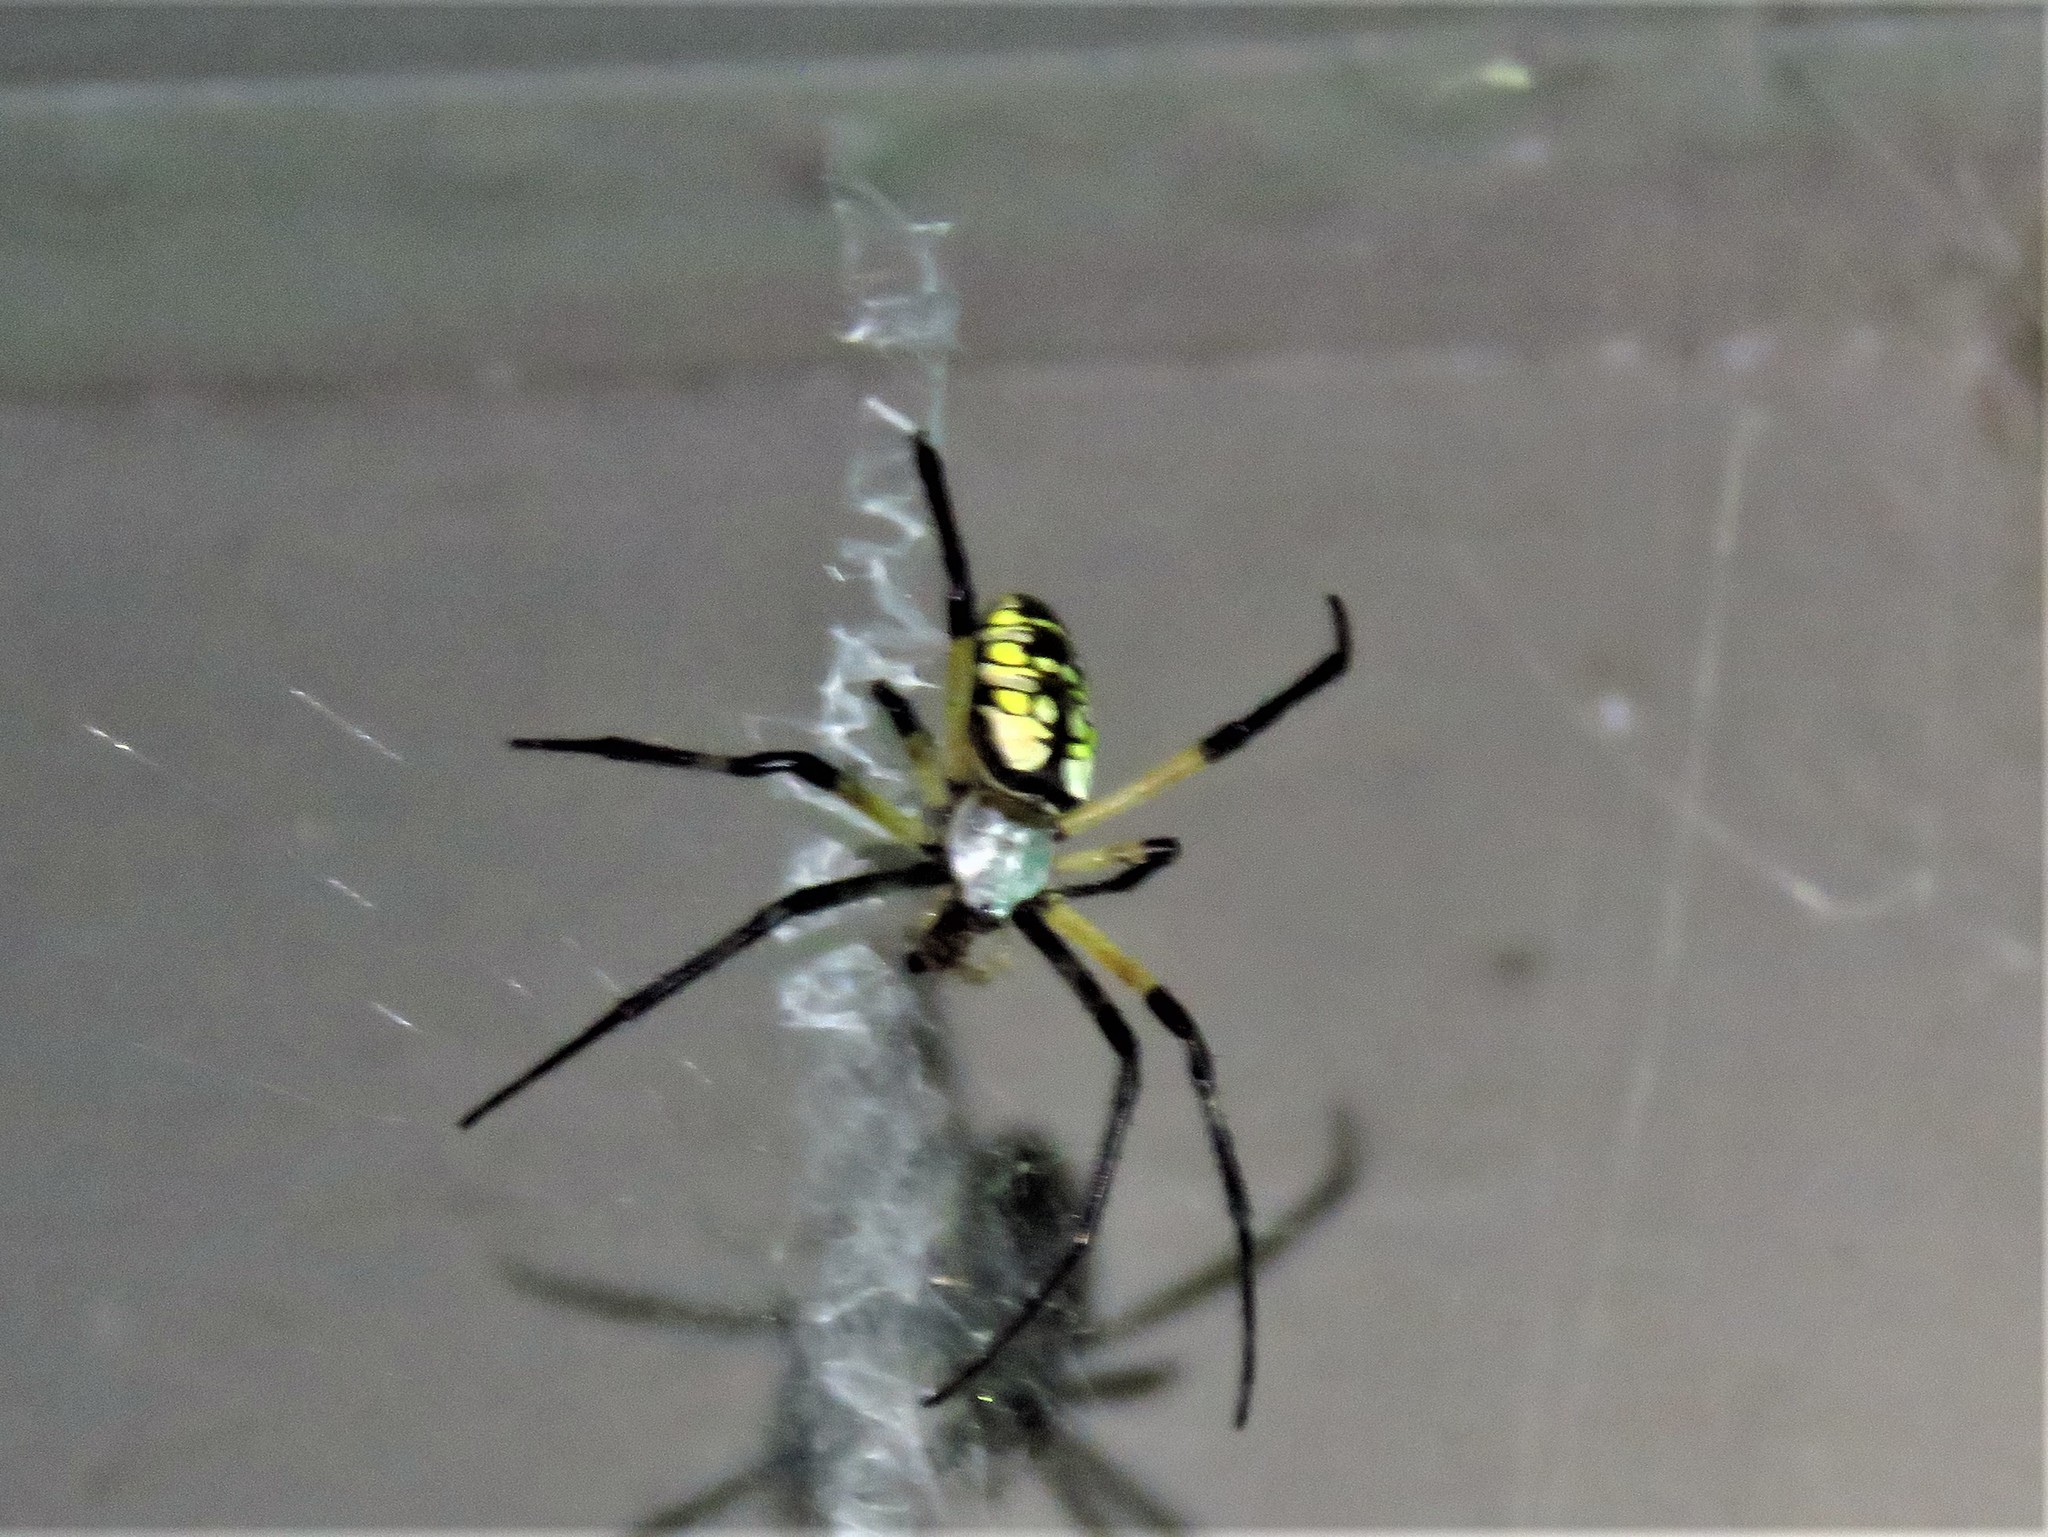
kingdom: Animalia
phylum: Arthropoda
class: Arachnida
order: Araneae
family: Araneidae
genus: Argiope
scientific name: Argiope aurantia
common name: Orb weavers
